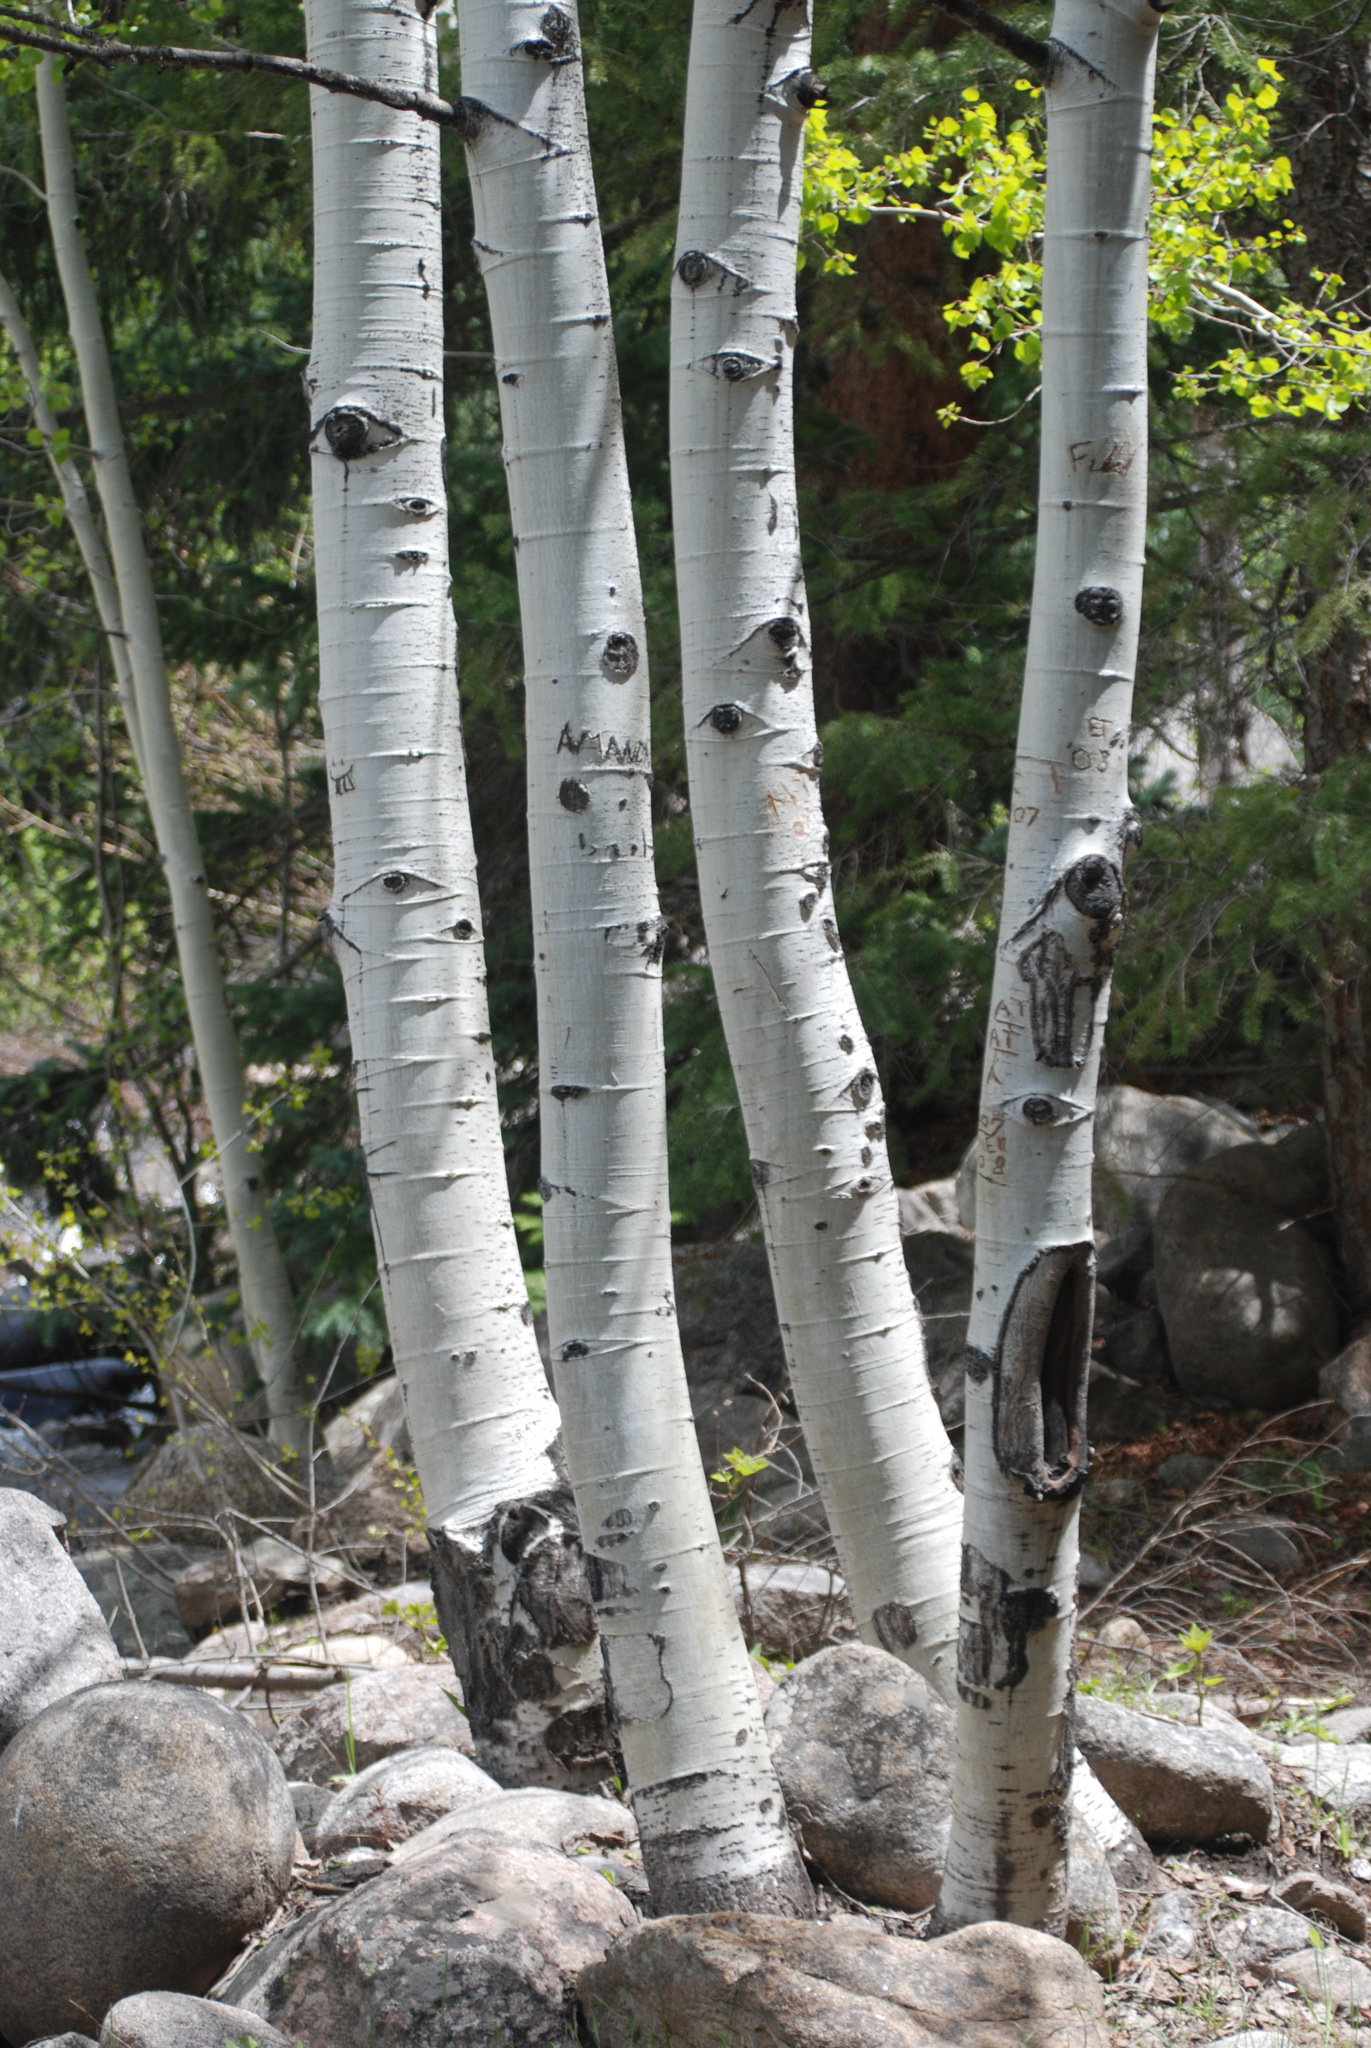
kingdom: Plantae
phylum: Tracheophyta
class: Magnoliopsida
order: Malpighiales
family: Salicaceae
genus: Populus
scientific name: Populus tremuloides
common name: Quaking aspen
